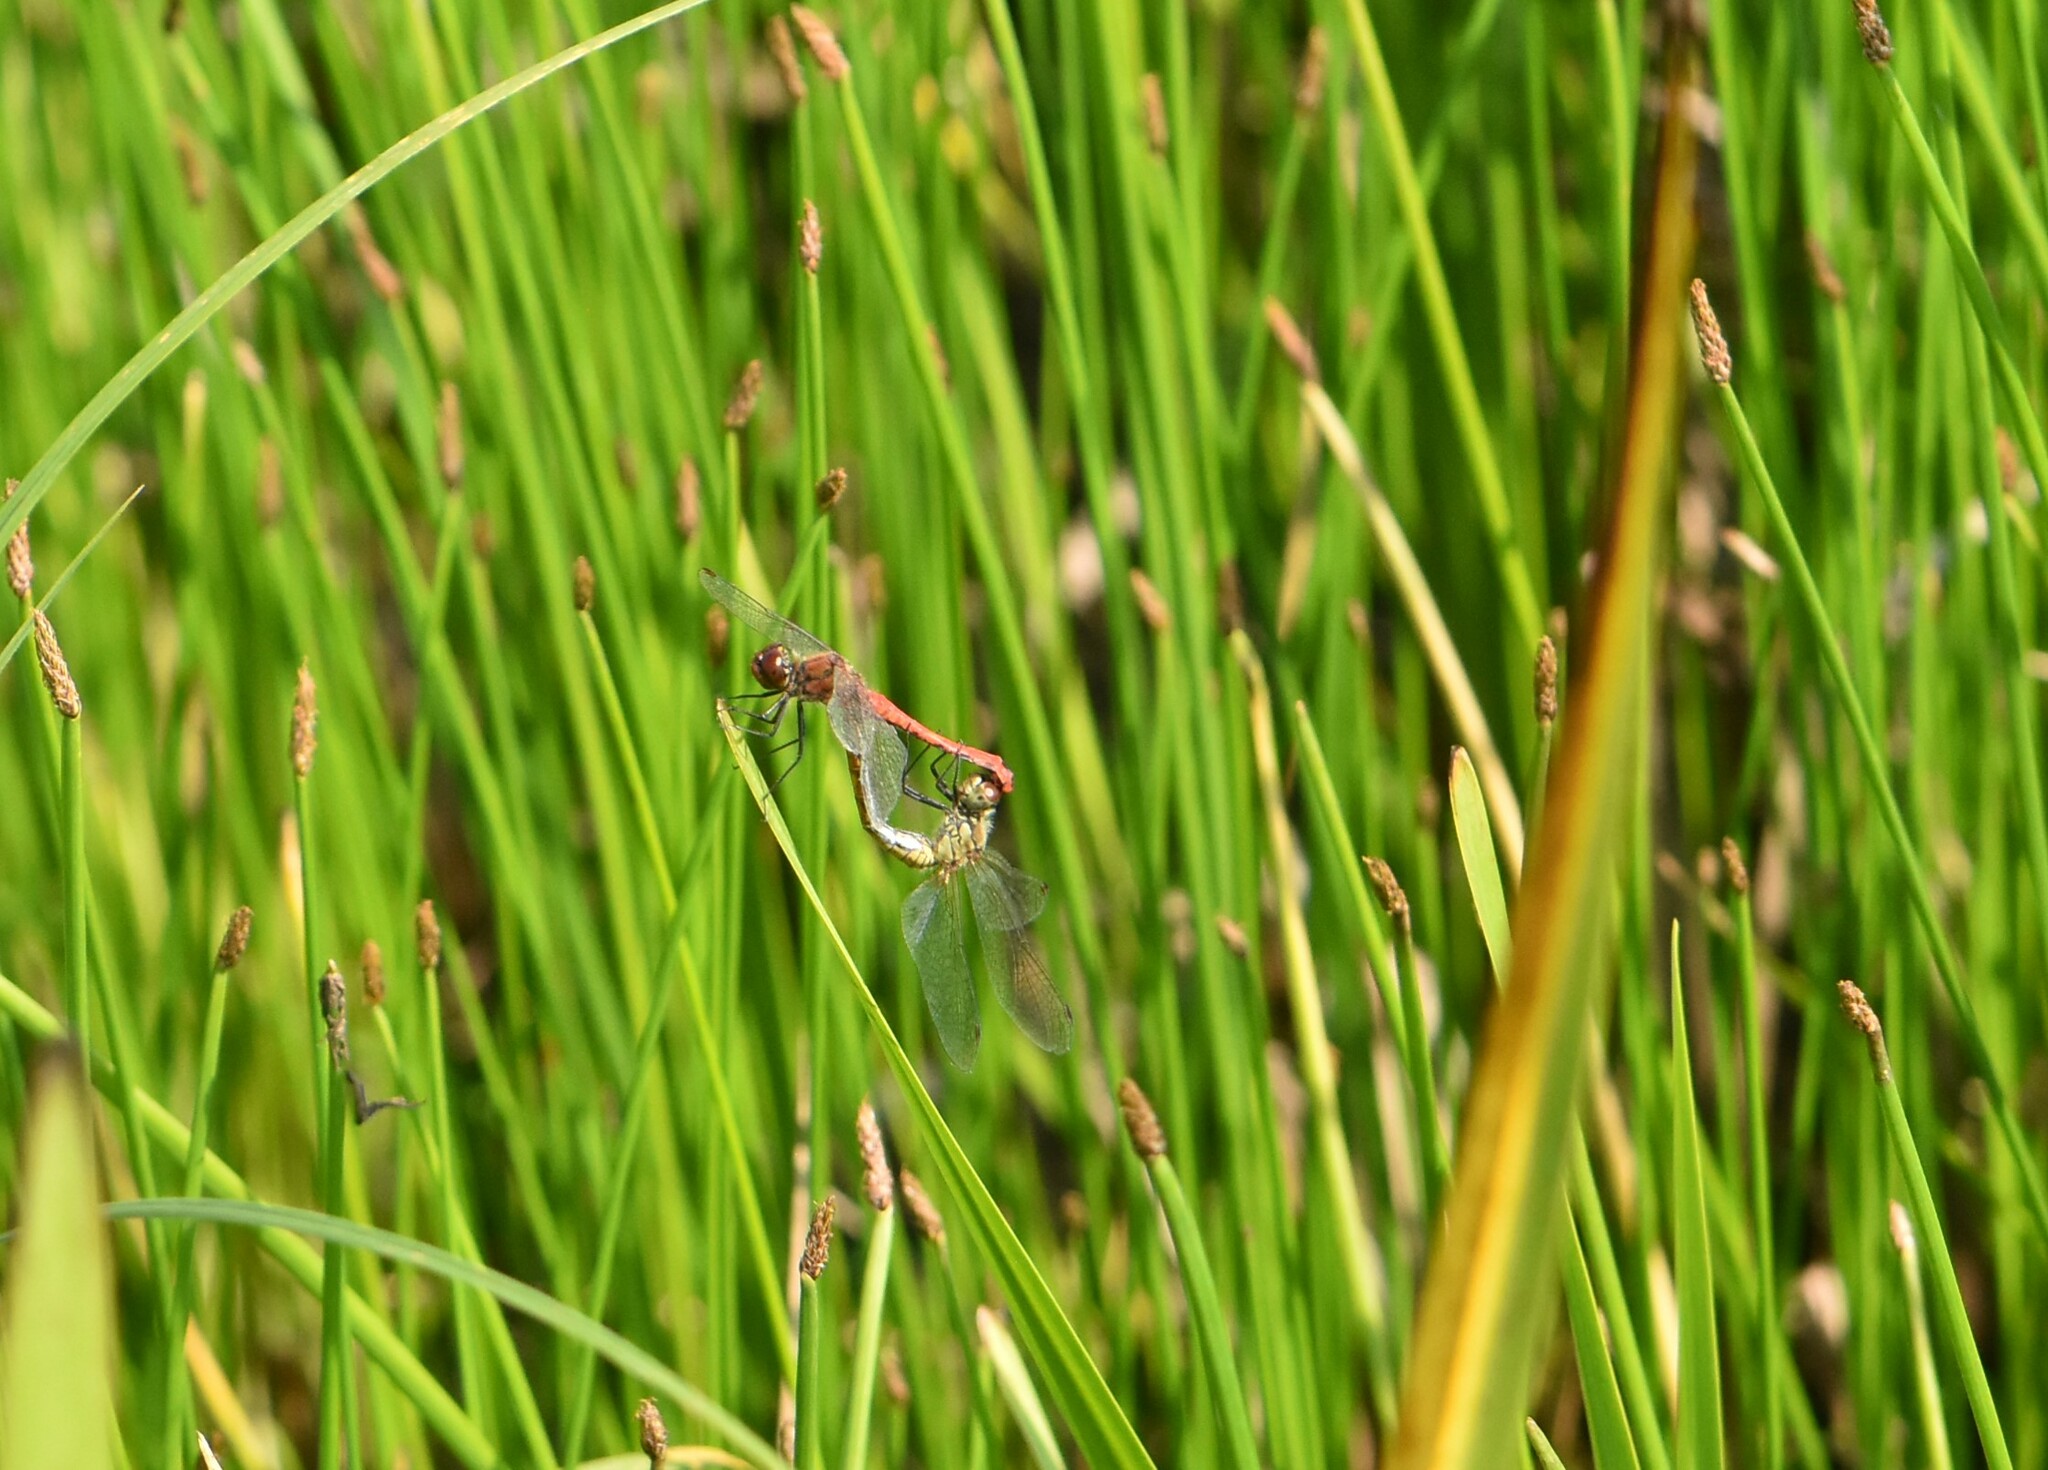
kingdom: Animalia
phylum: Arthropoda
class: Insecta
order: Odonata
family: Libellulidae
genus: Sympetrum
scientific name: Sympetrum sanguineum
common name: Ruddy darter
